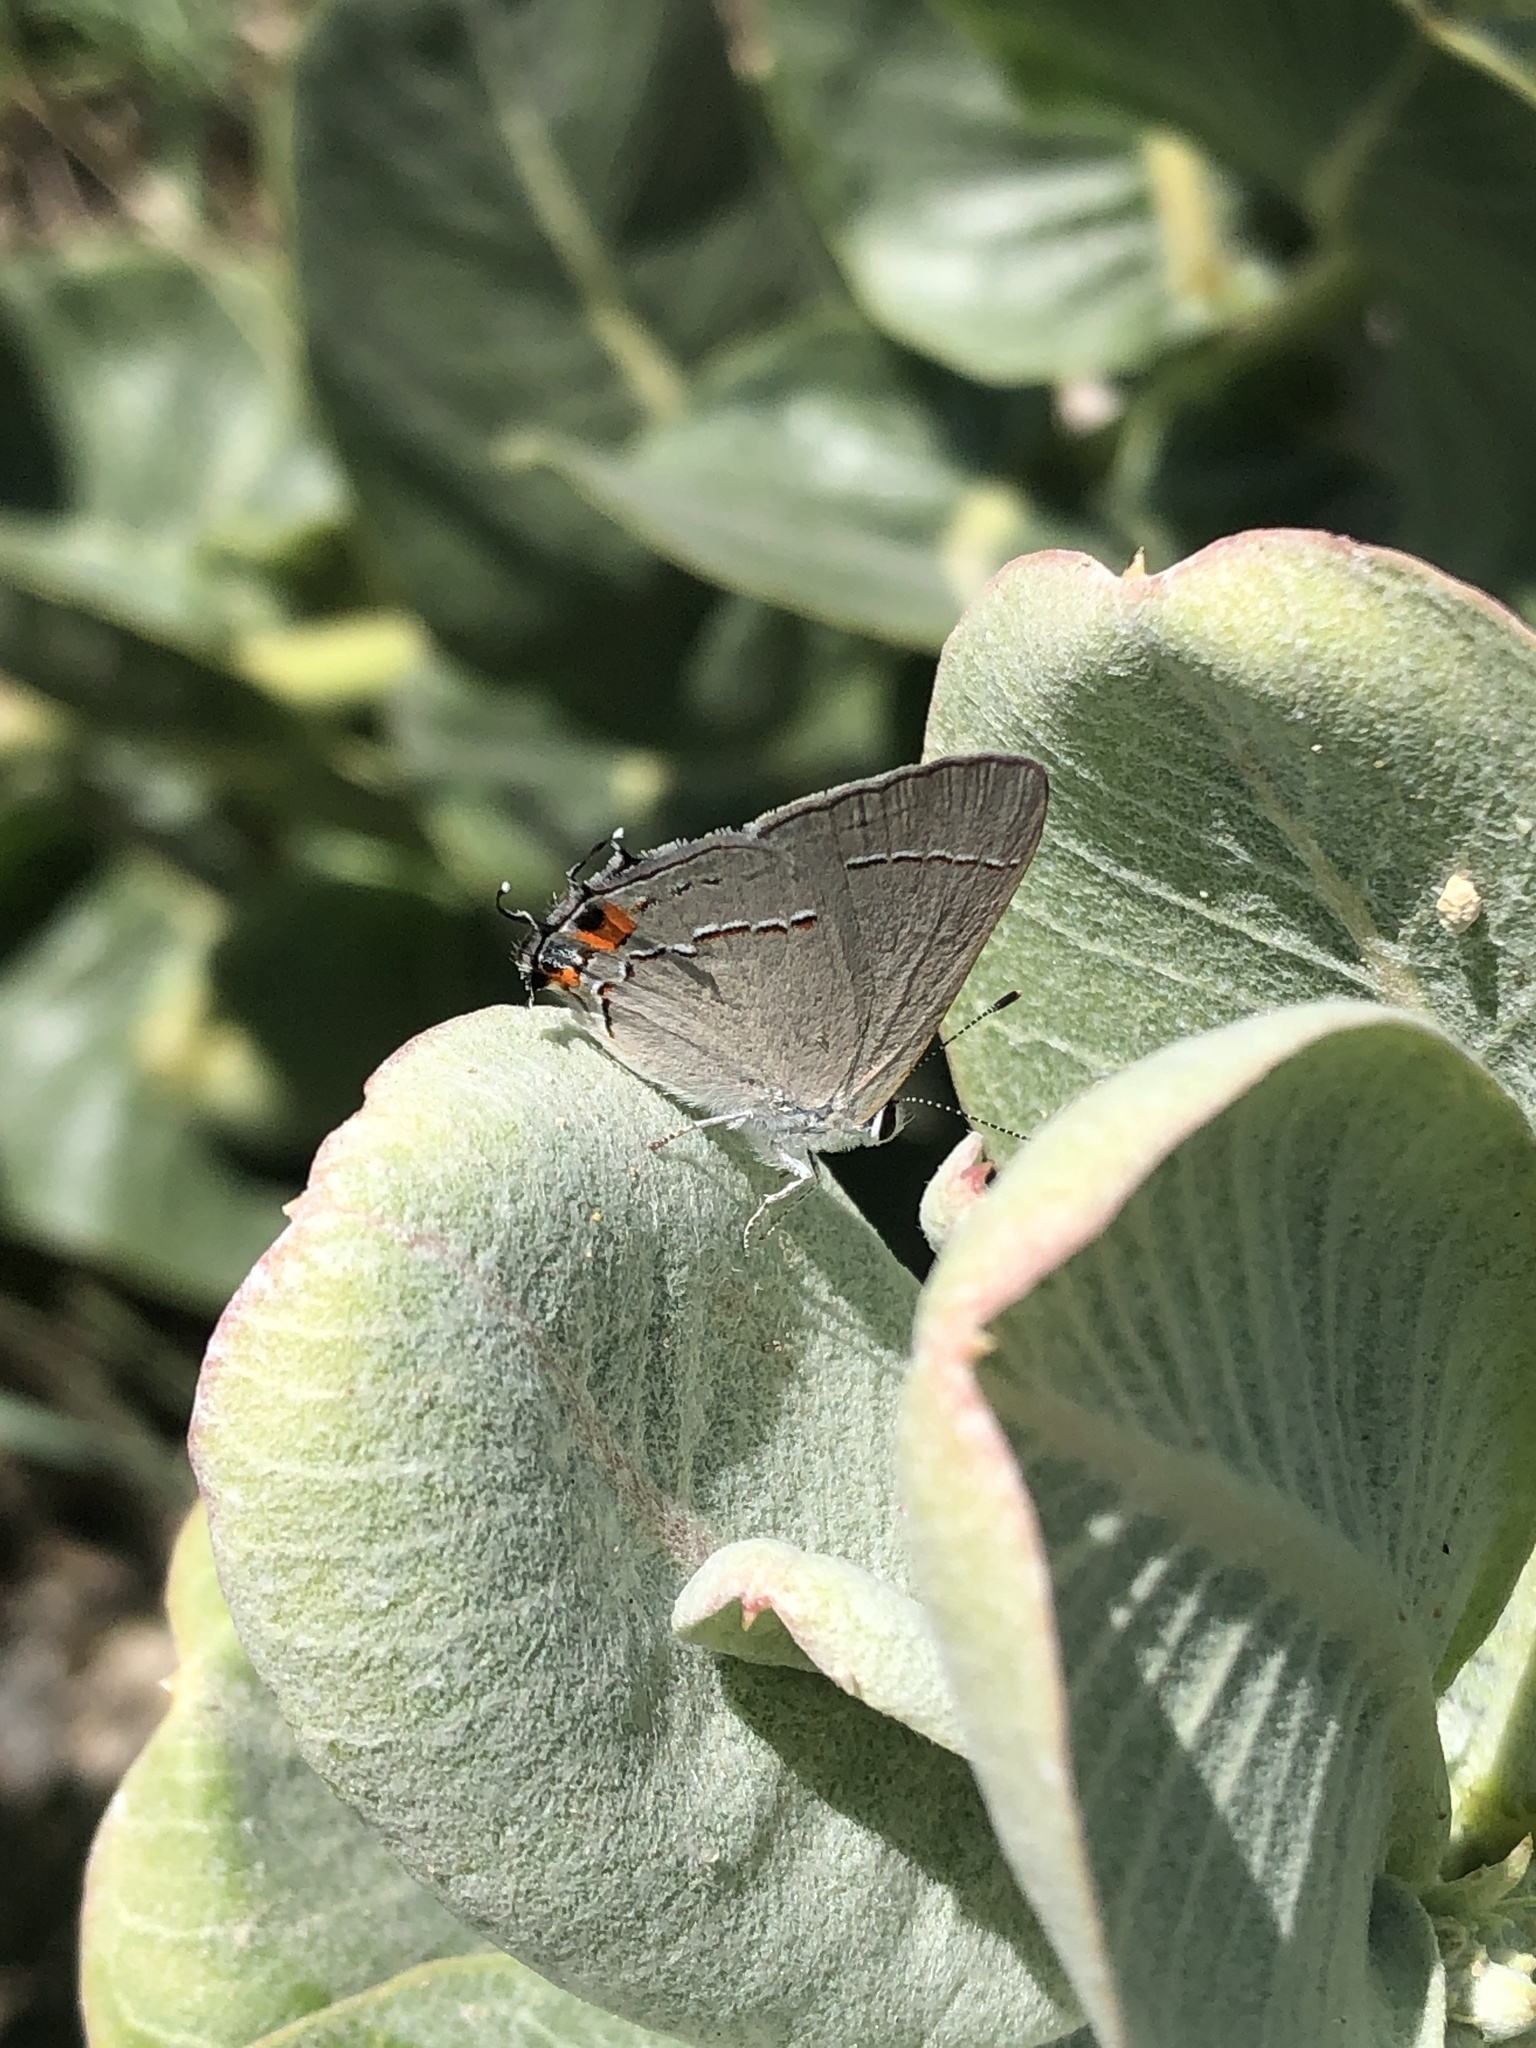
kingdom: Animalia
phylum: Arthropoda
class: Insecta
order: Lepidoptera
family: Lycaenidae
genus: Strymon
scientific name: Strymon melinus
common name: Gray hairstreak
